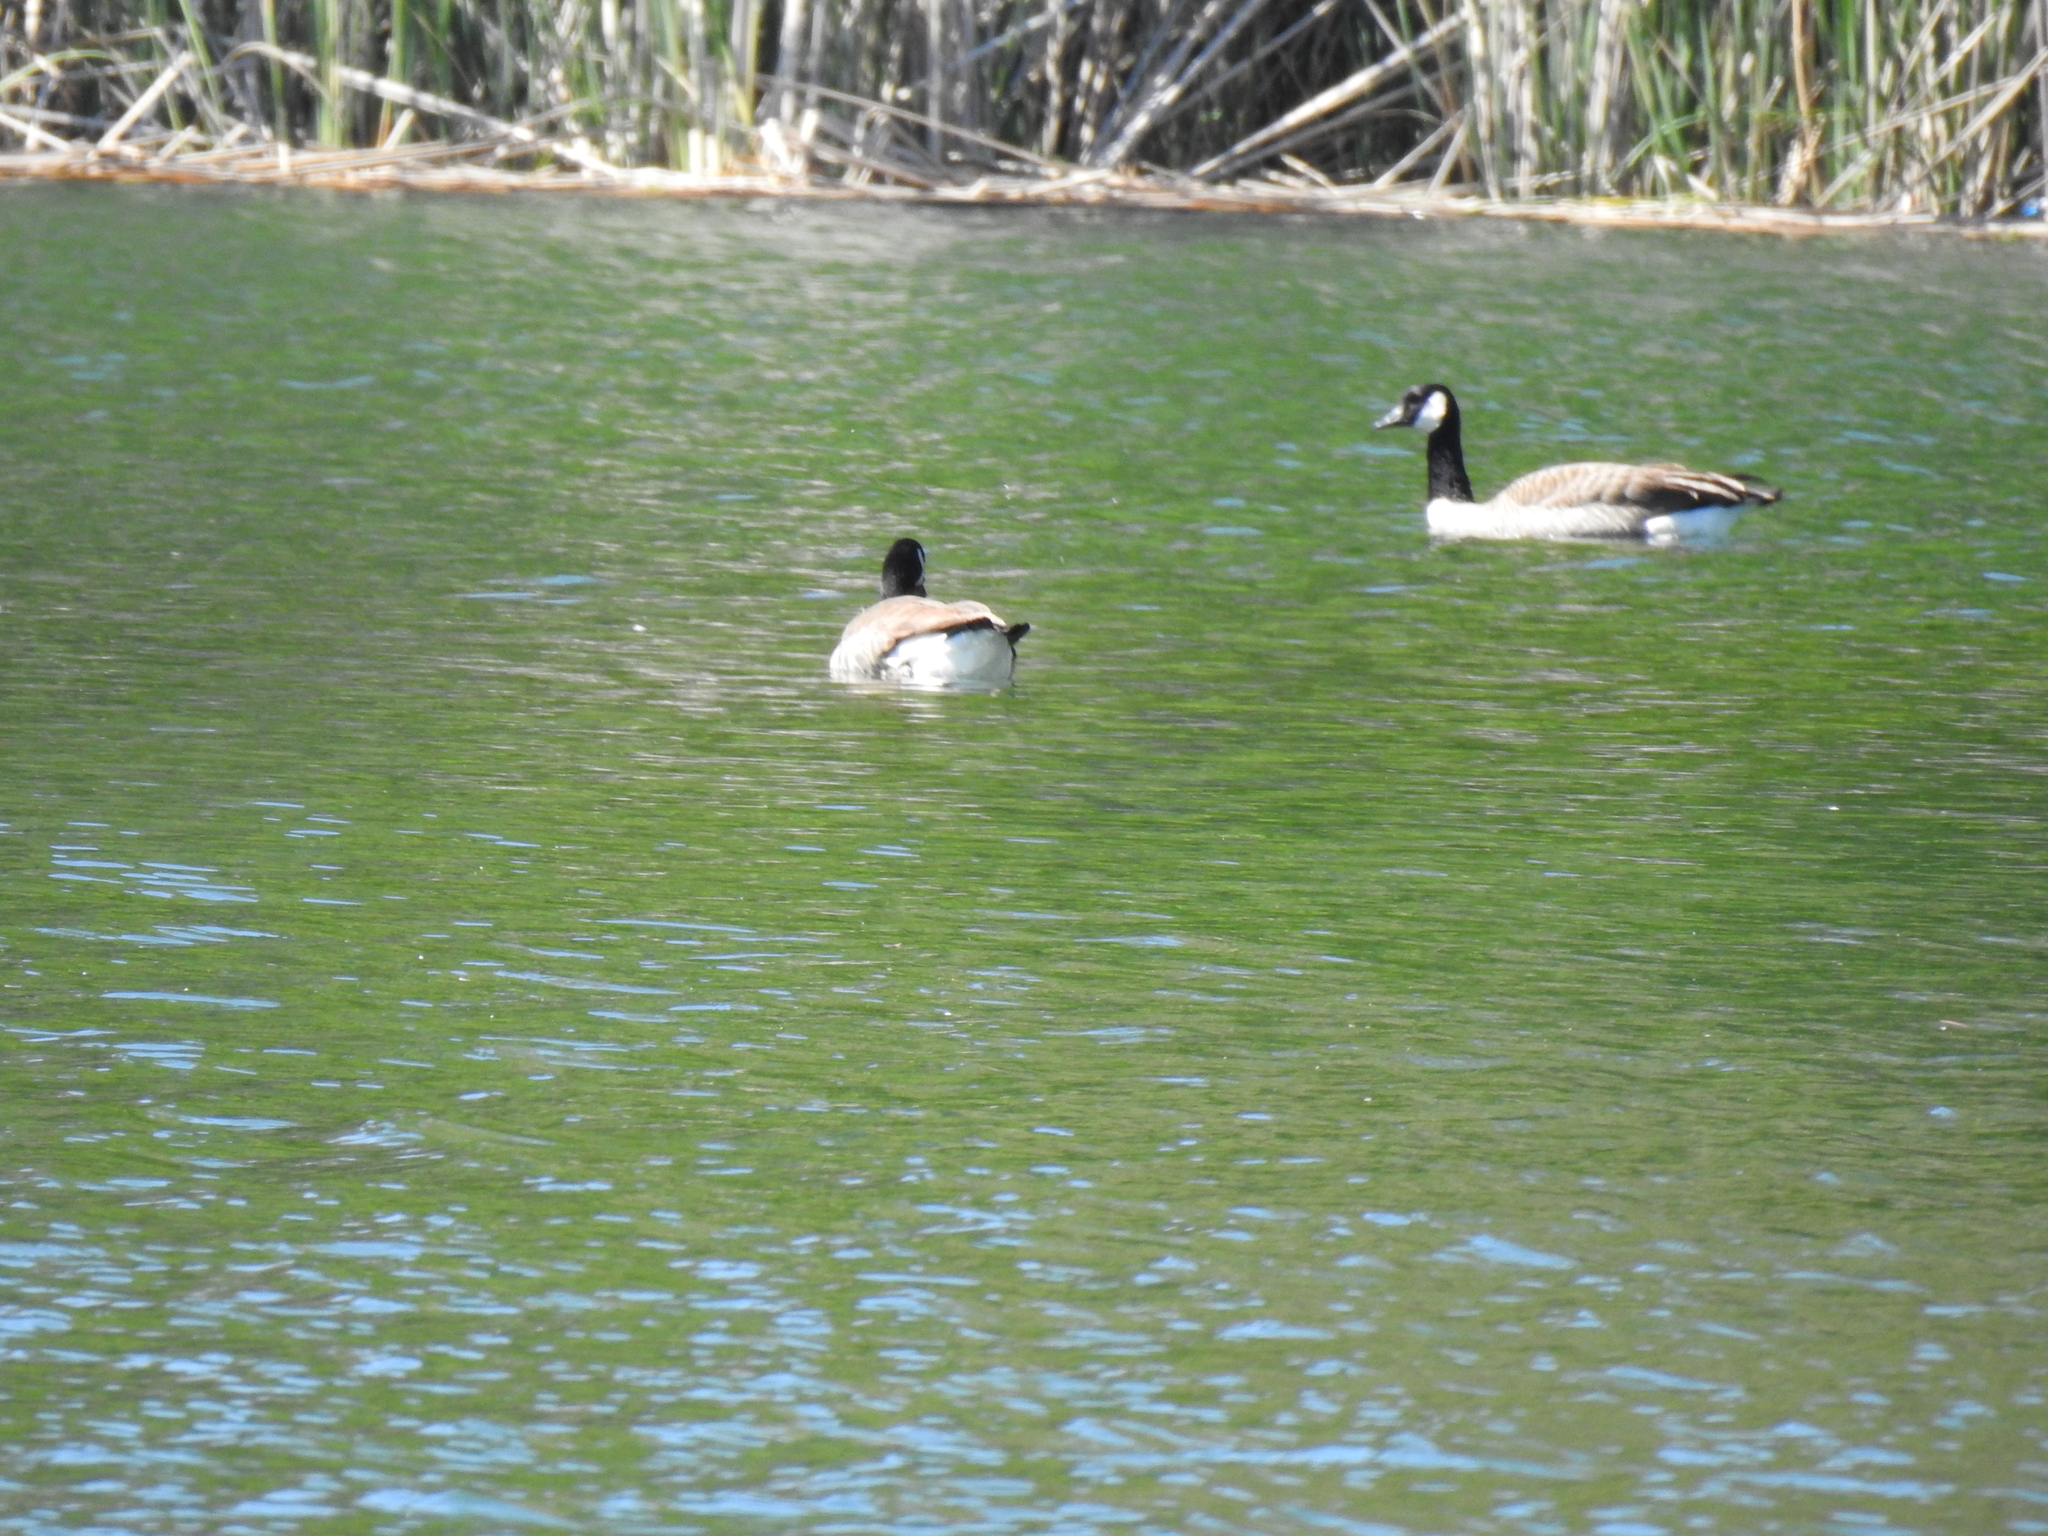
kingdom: Animalia
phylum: Chordata
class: Aves
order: Anseriformes
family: Anatidae
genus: Branta
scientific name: Branta canadensis
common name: Canada goose
